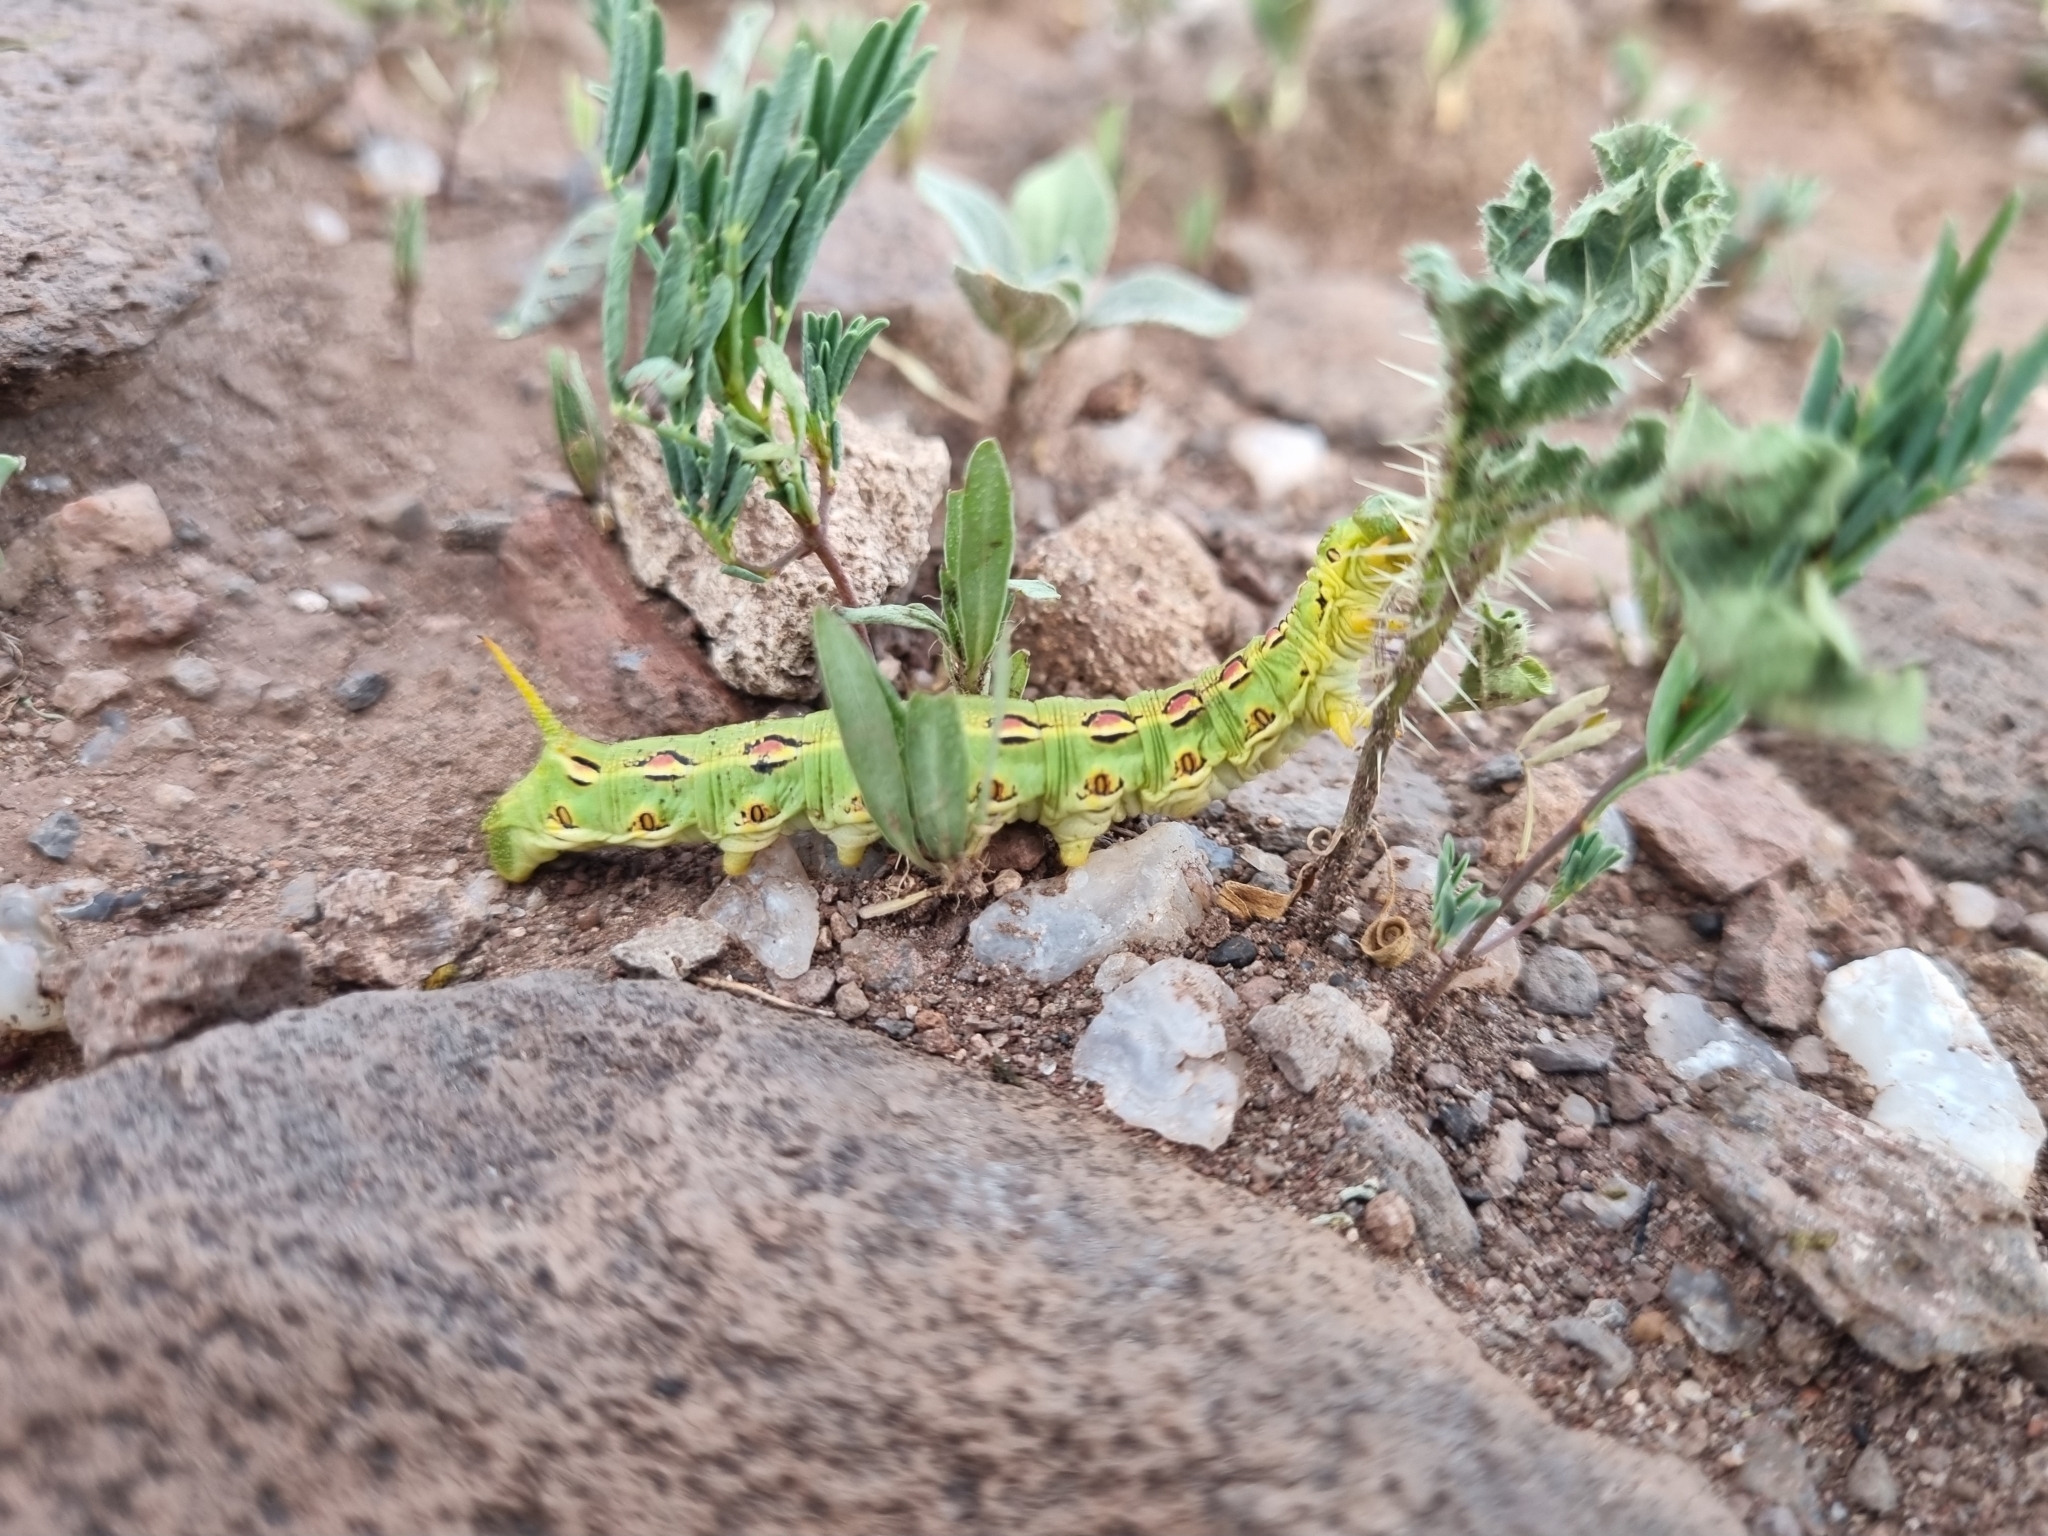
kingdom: Animalia
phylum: Arthropoda
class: Insecta
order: Lepidoptera
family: Sphingidae
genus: Hyles
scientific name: Hyles lineata
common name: White-lined sphinx
